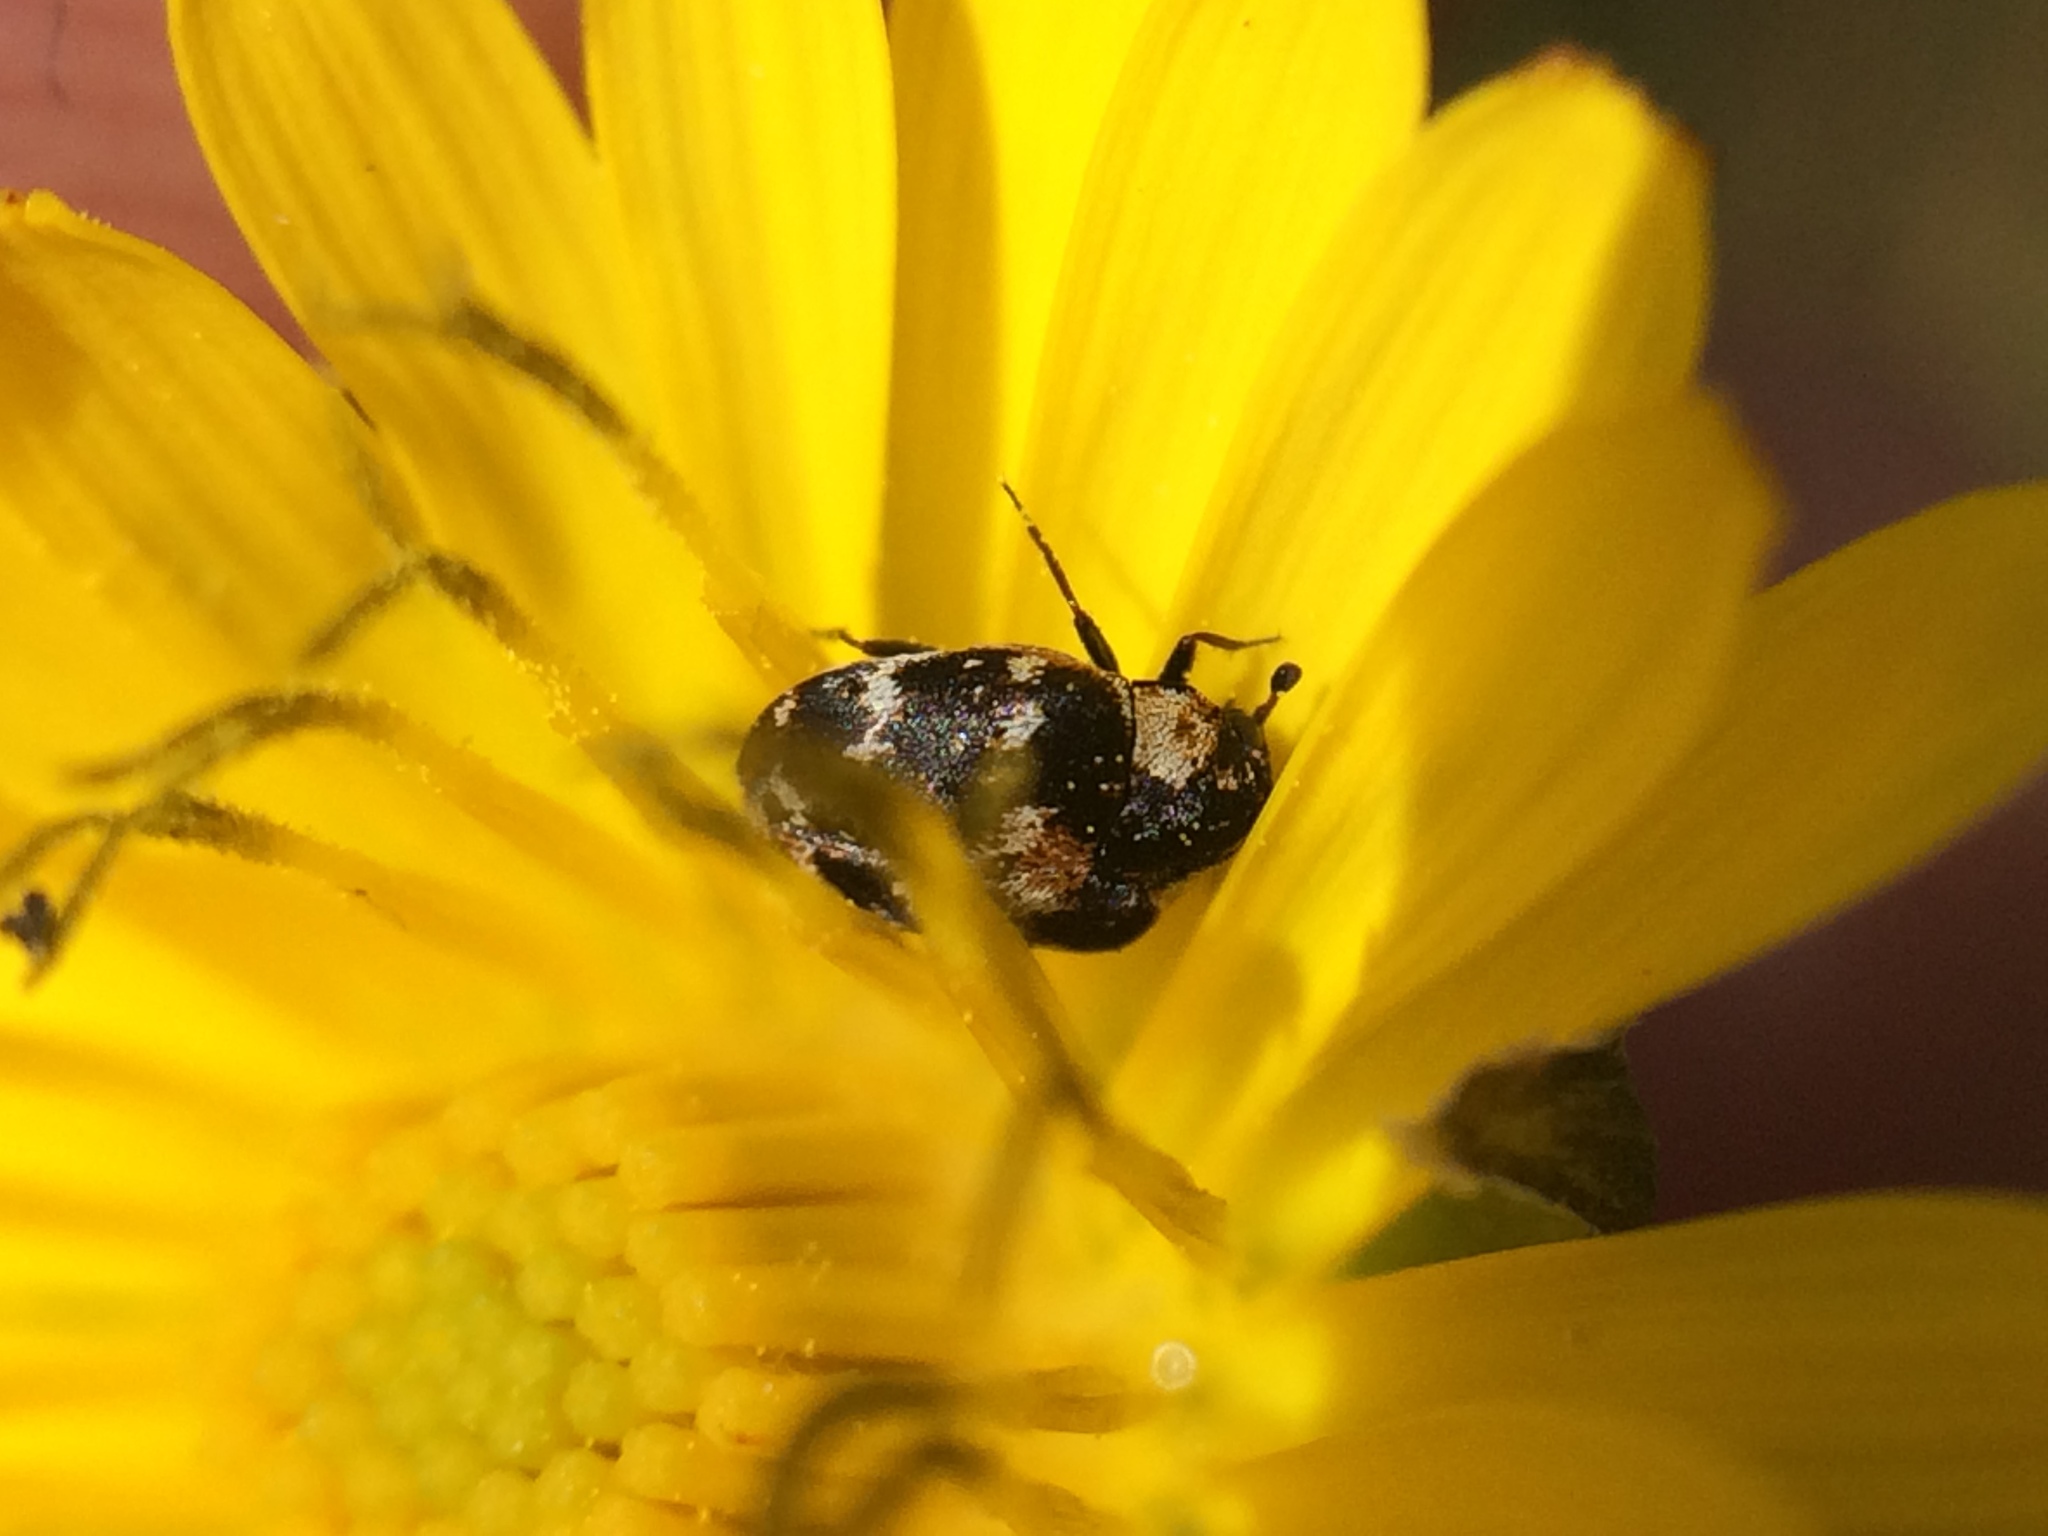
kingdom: Animalia
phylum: Arthropoda
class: Insecta
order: Coleoptera
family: Dermestidae
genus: Anthrenus
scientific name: Anthrenus lepidus
